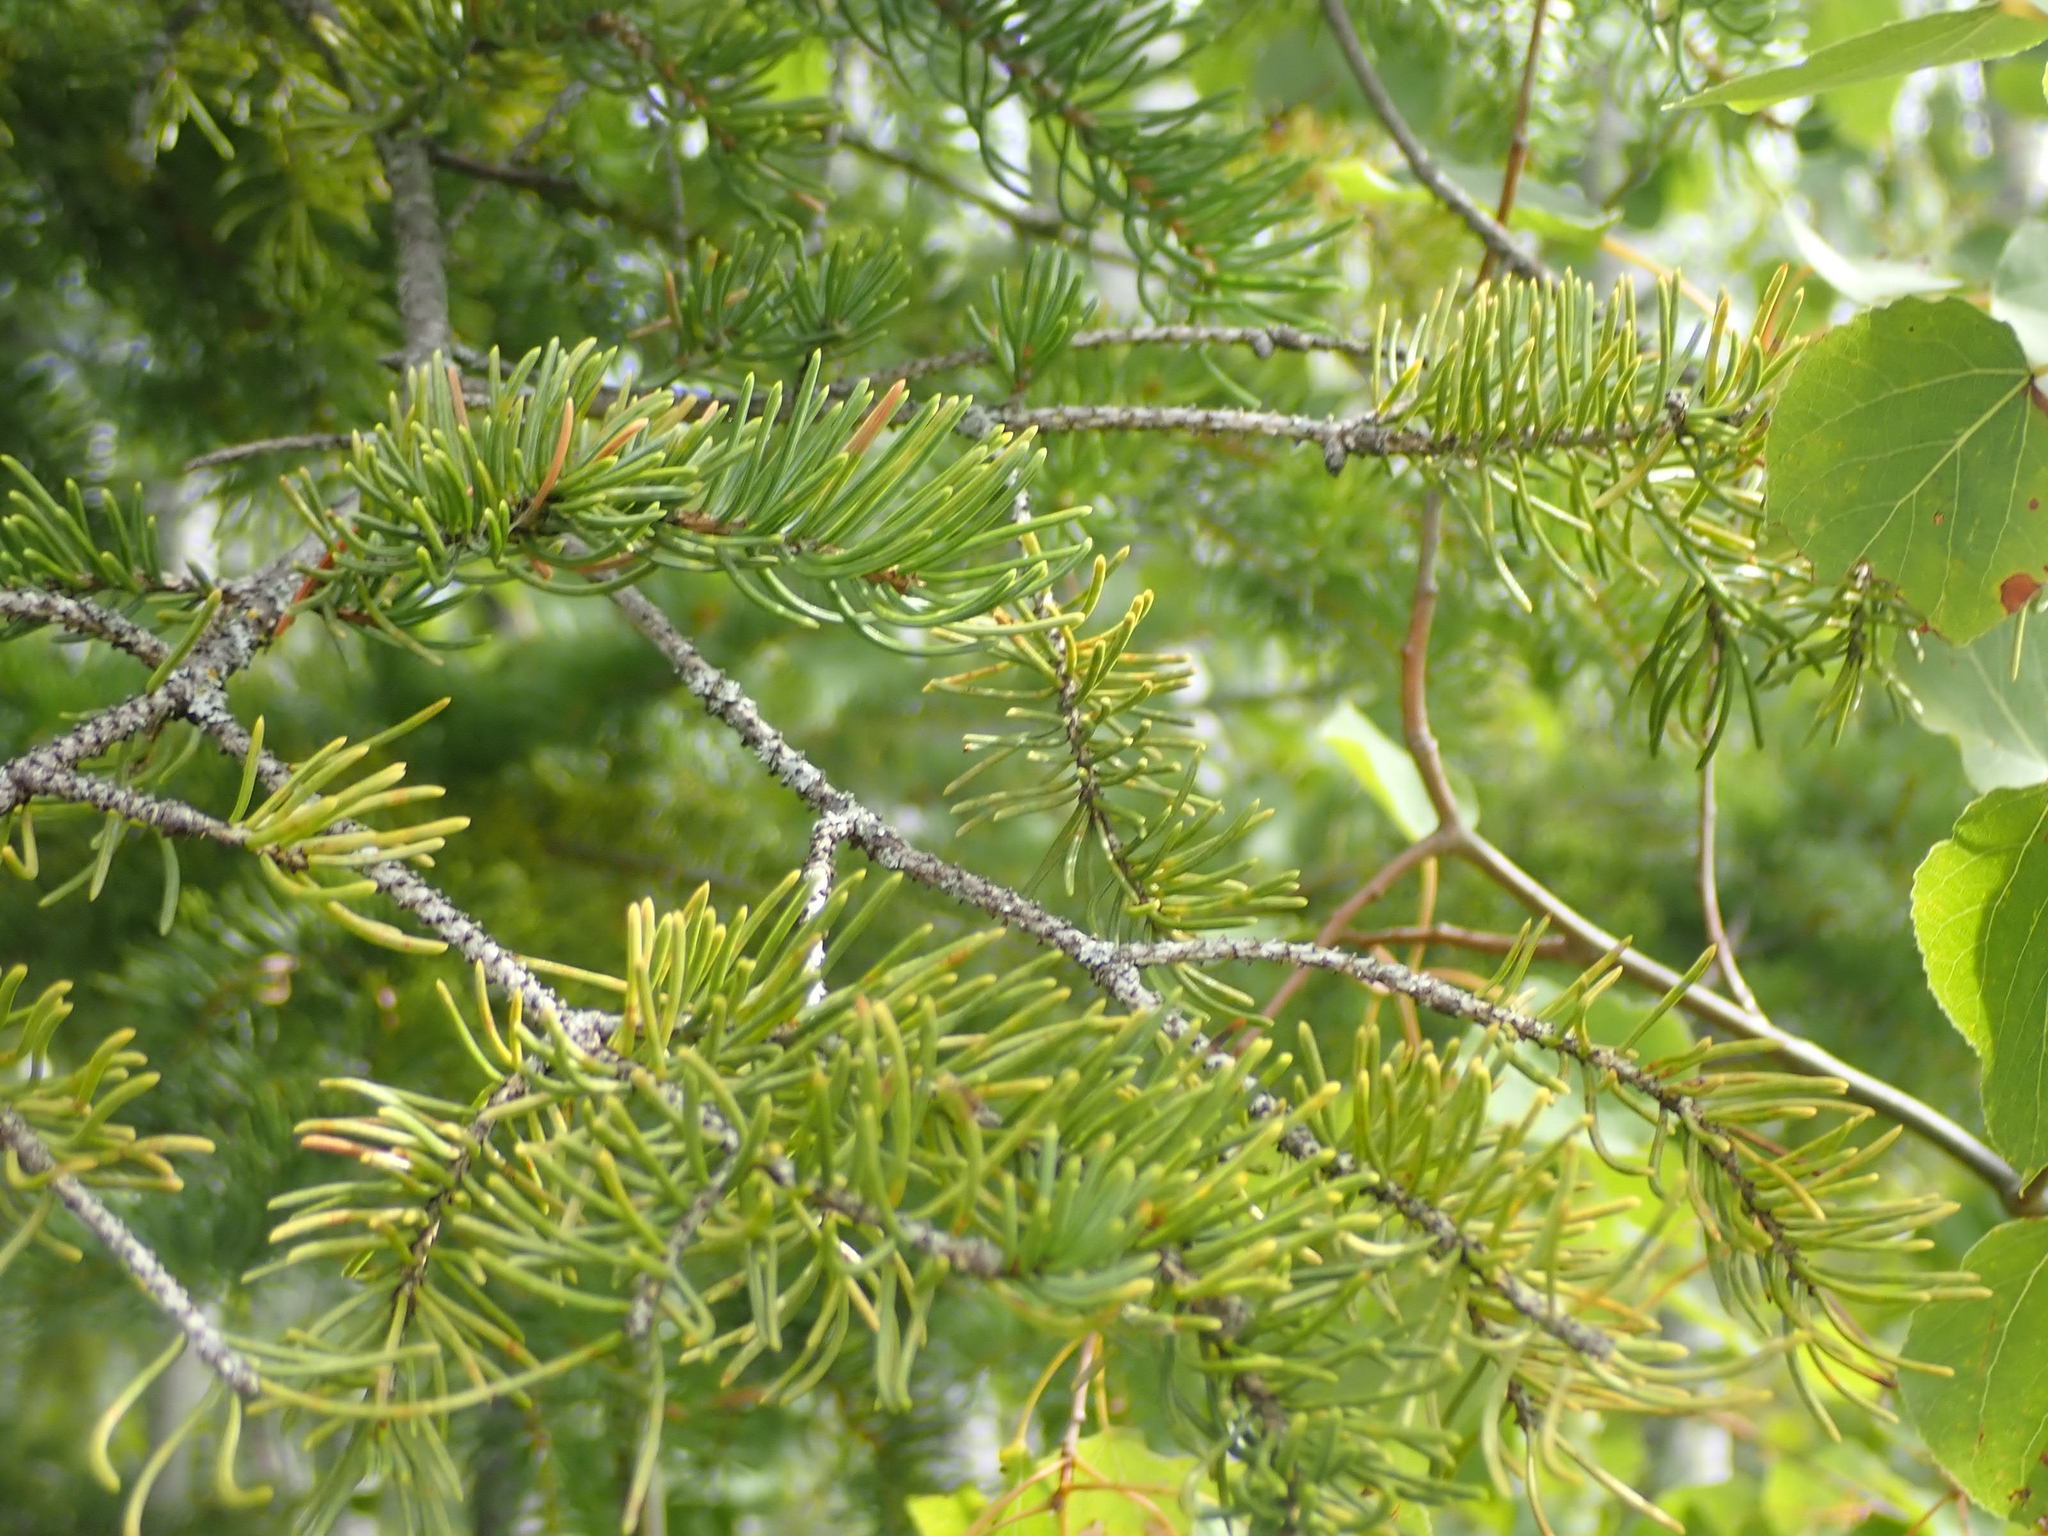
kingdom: Plantae
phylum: Tracheophyta
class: Pinopsida
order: Pinales
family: Pinaceae
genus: Picea
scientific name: Picea glauca
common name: White spruce
